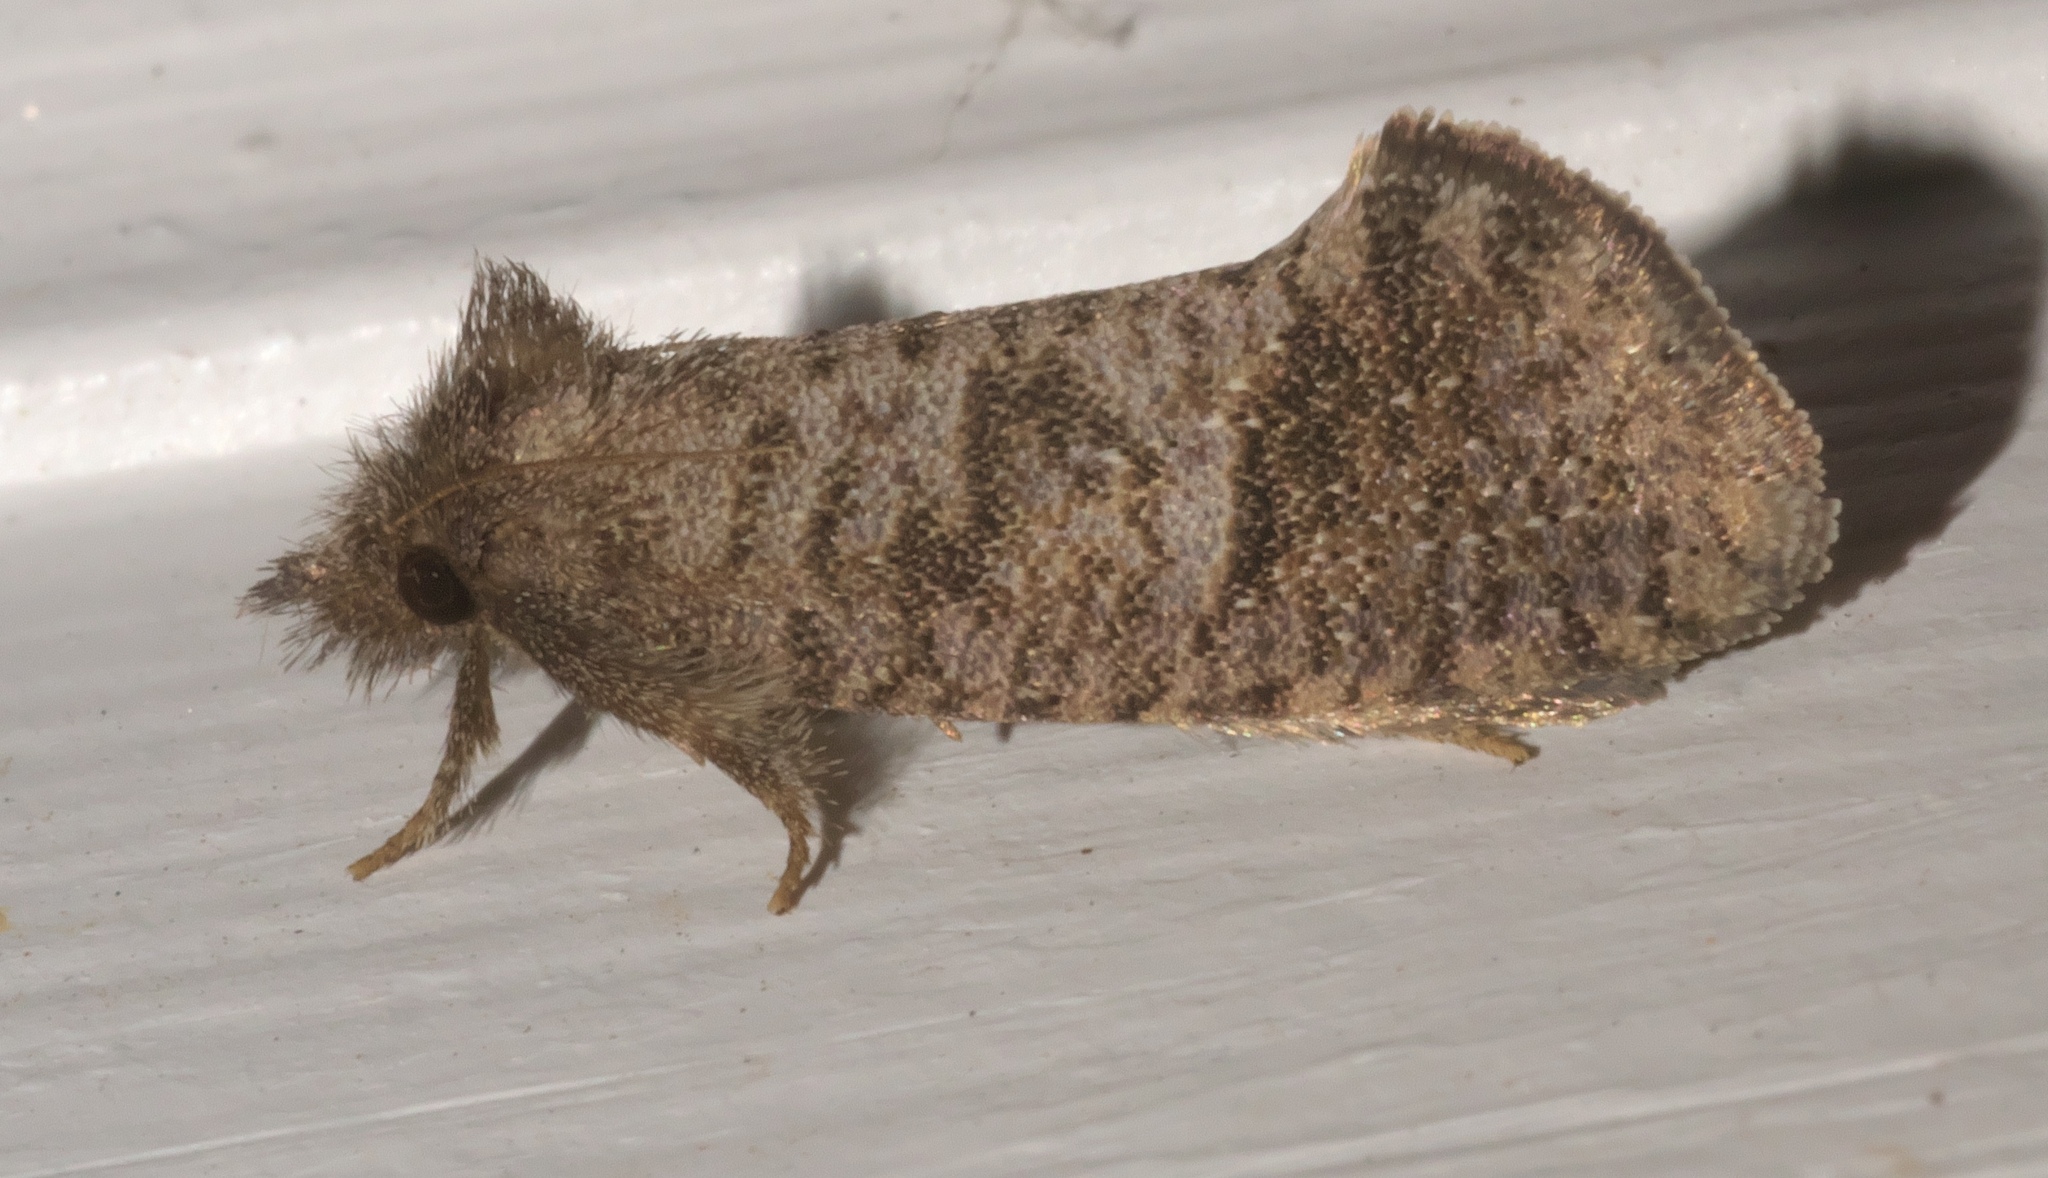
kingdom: Animalia
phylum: Arthropoda
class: Insecta
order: Lepidoptera
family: Tineidae
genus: Acrolophus
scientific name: Acrolophus texanella
